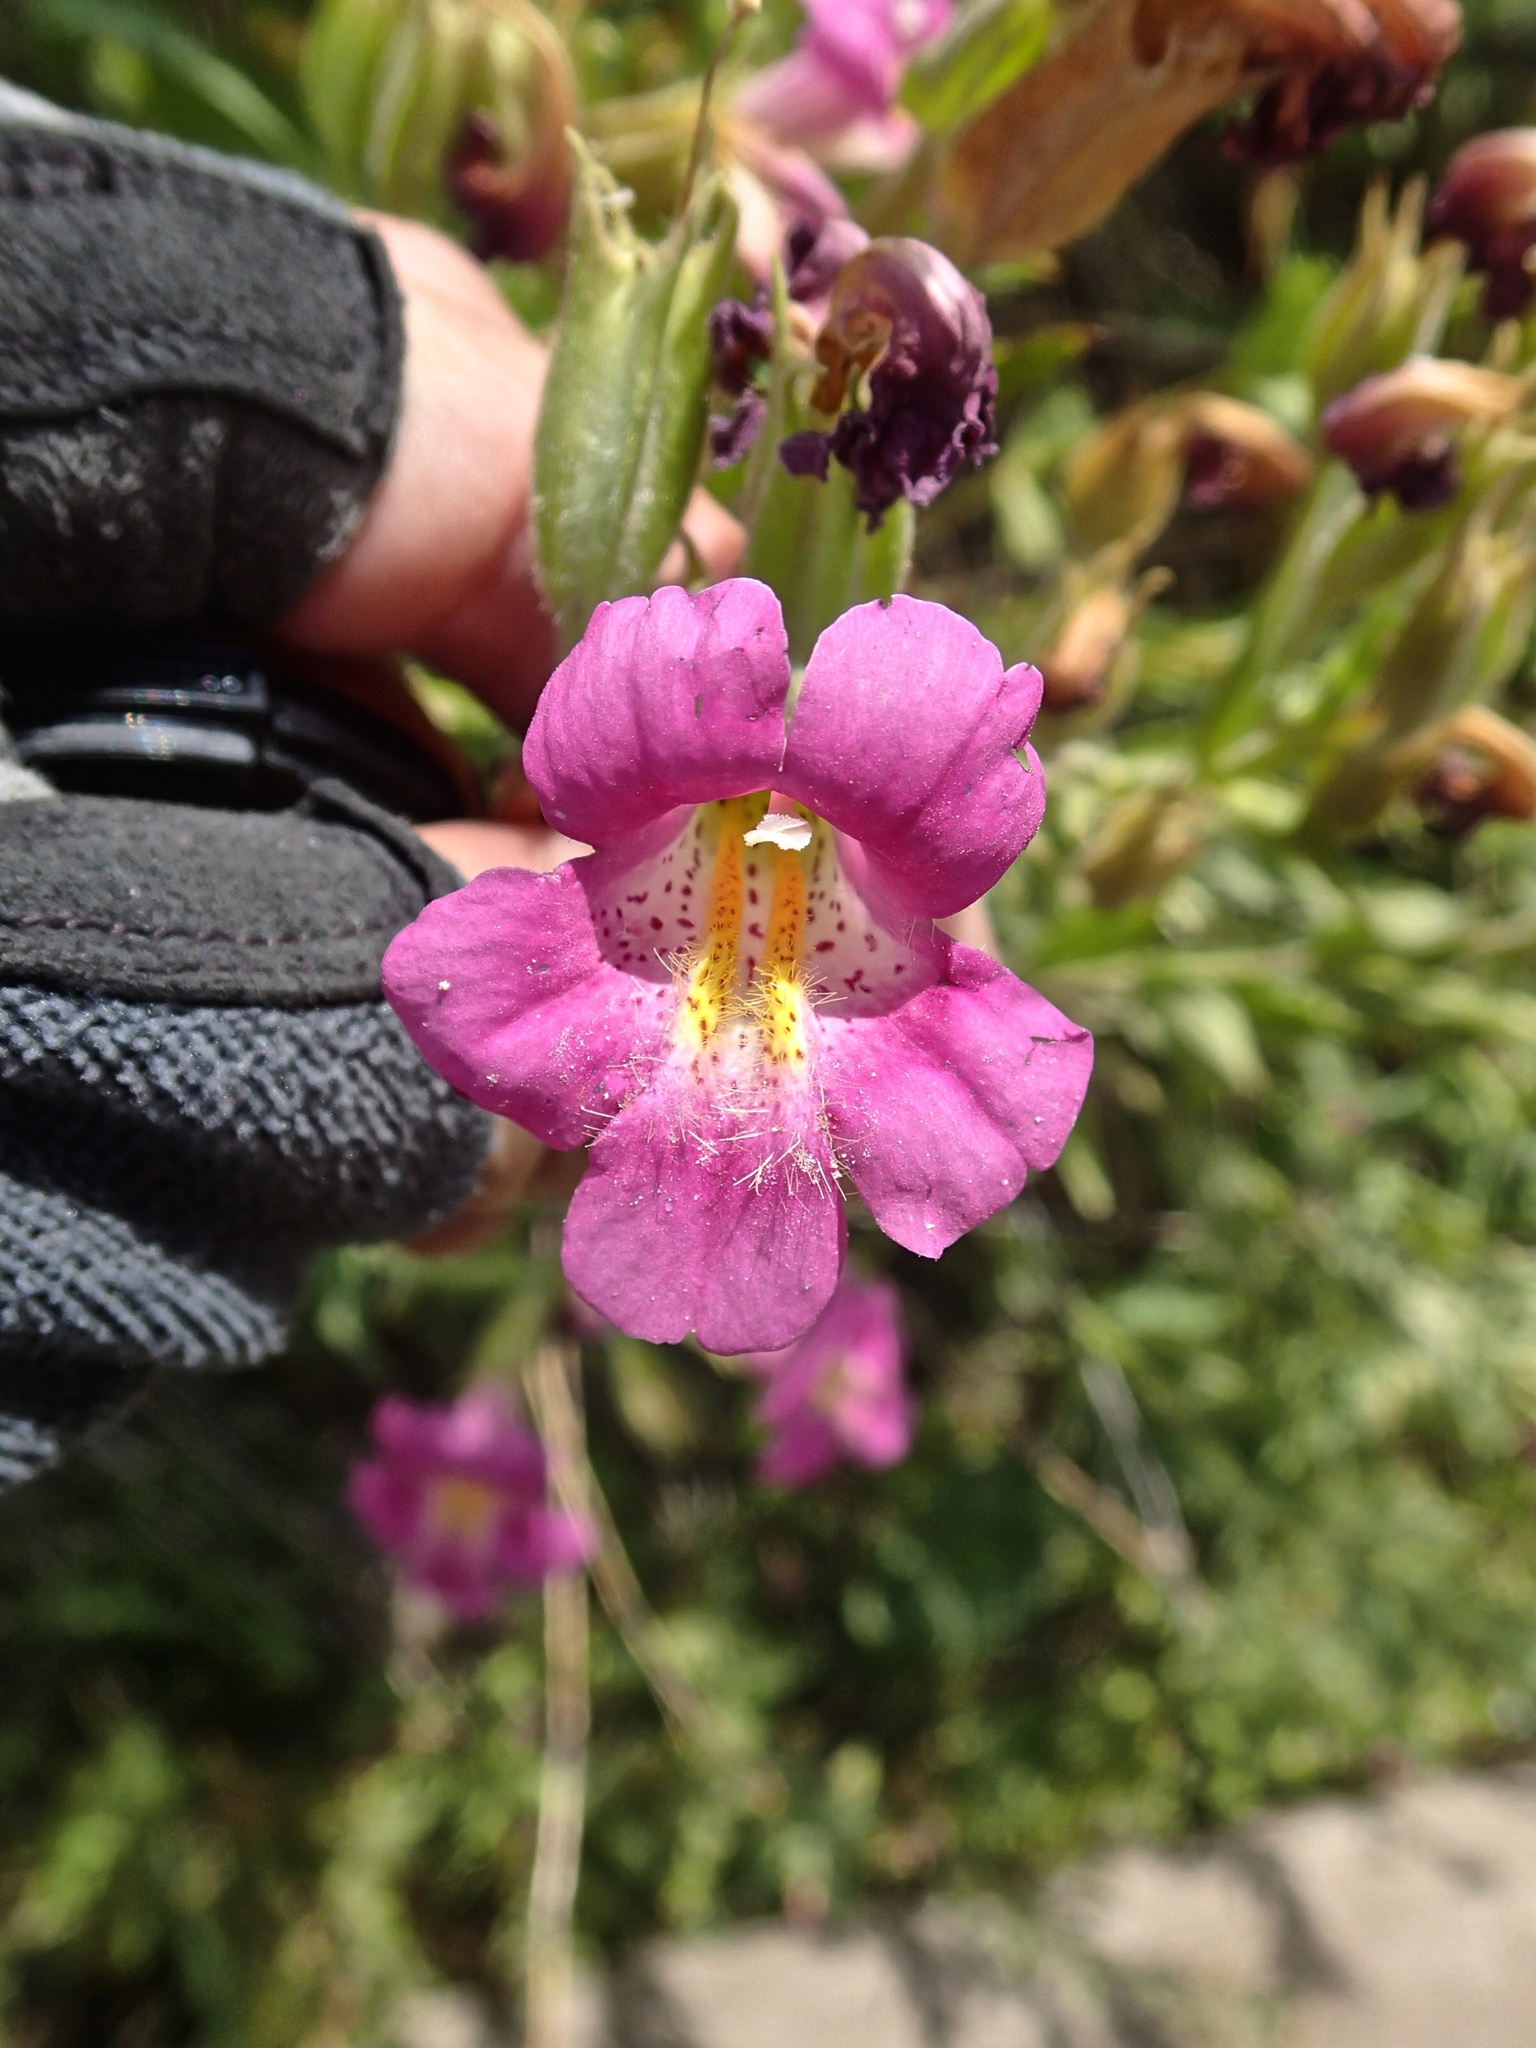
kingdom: Plantae
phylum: Tracheophyta
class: Magnoliopsida
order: Lamiales
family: Phrymaceae
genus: Erythranthe
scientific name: Erythranthe lewisii
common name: Lewis's monkey-flower
